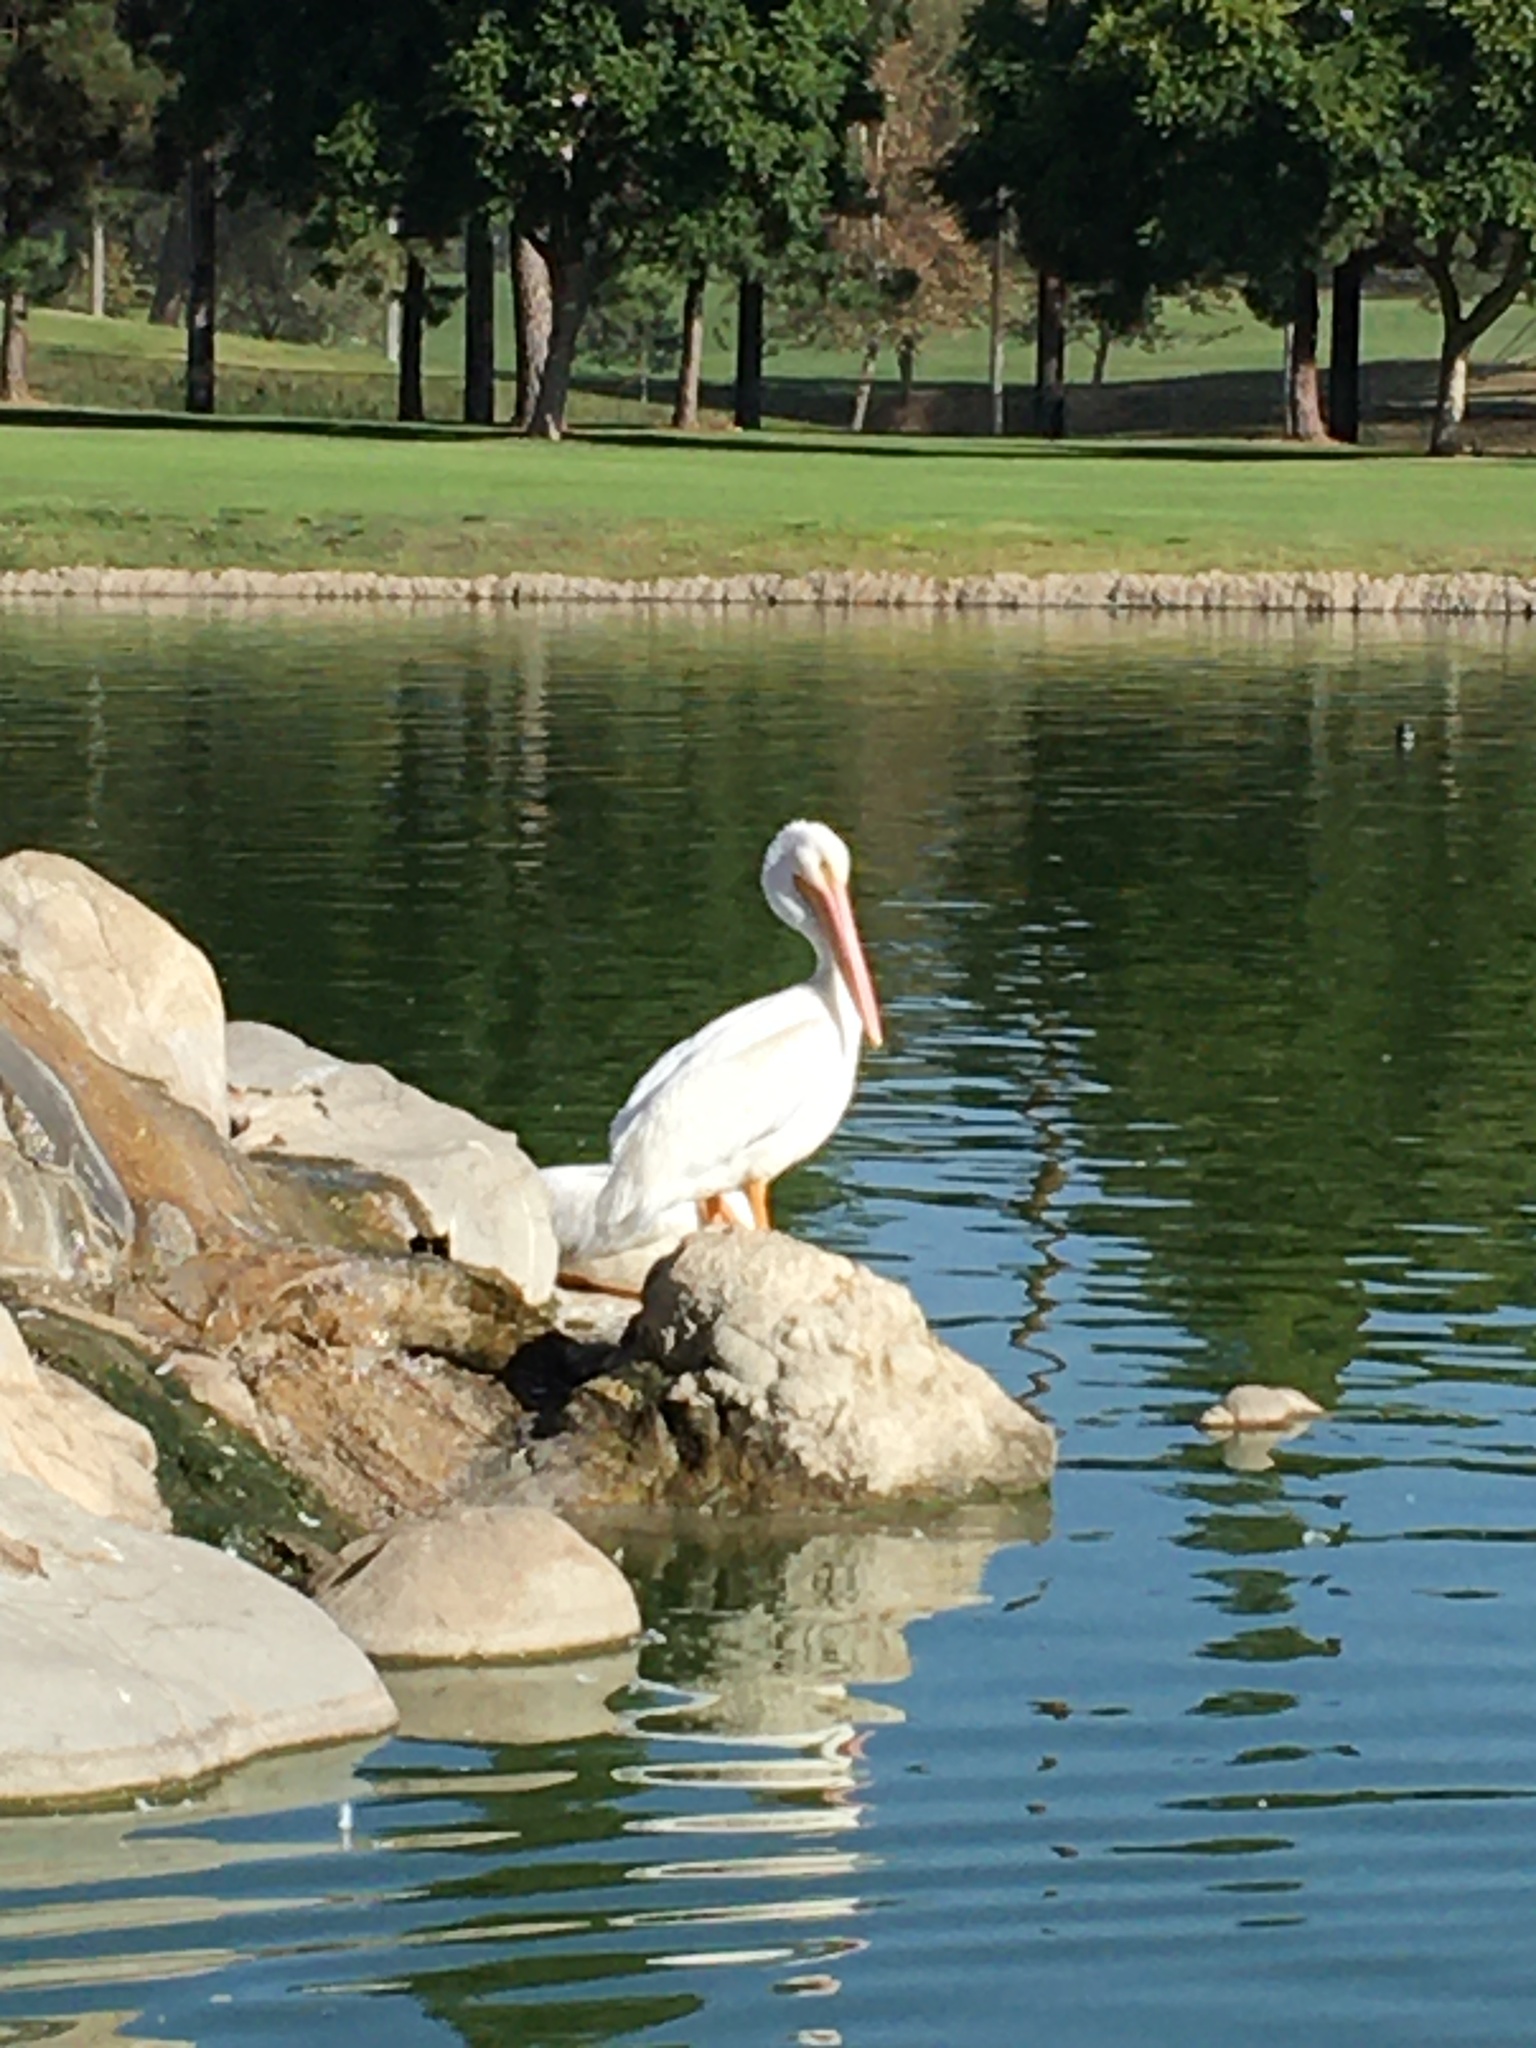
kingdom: Animalia
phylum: Chordata
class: Aves
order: Pelecaniformes
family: Pelecanidae
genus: Pelecanus
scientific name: Pelecanus erythrorhynchos
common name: American white pelican
